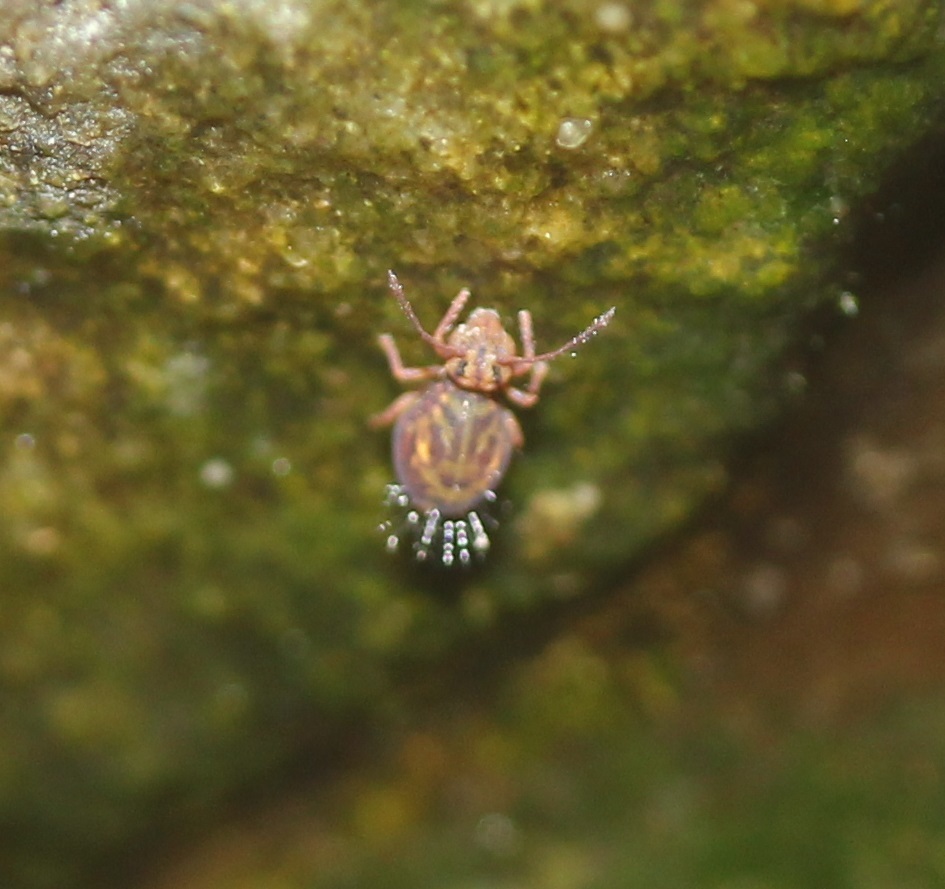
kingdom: Animalia
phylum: Arthropoda
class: Collembola
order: Symphypleona
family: Dicyrtomidae
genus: Dicyrtomina
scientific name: Dicyrtomina minuta
